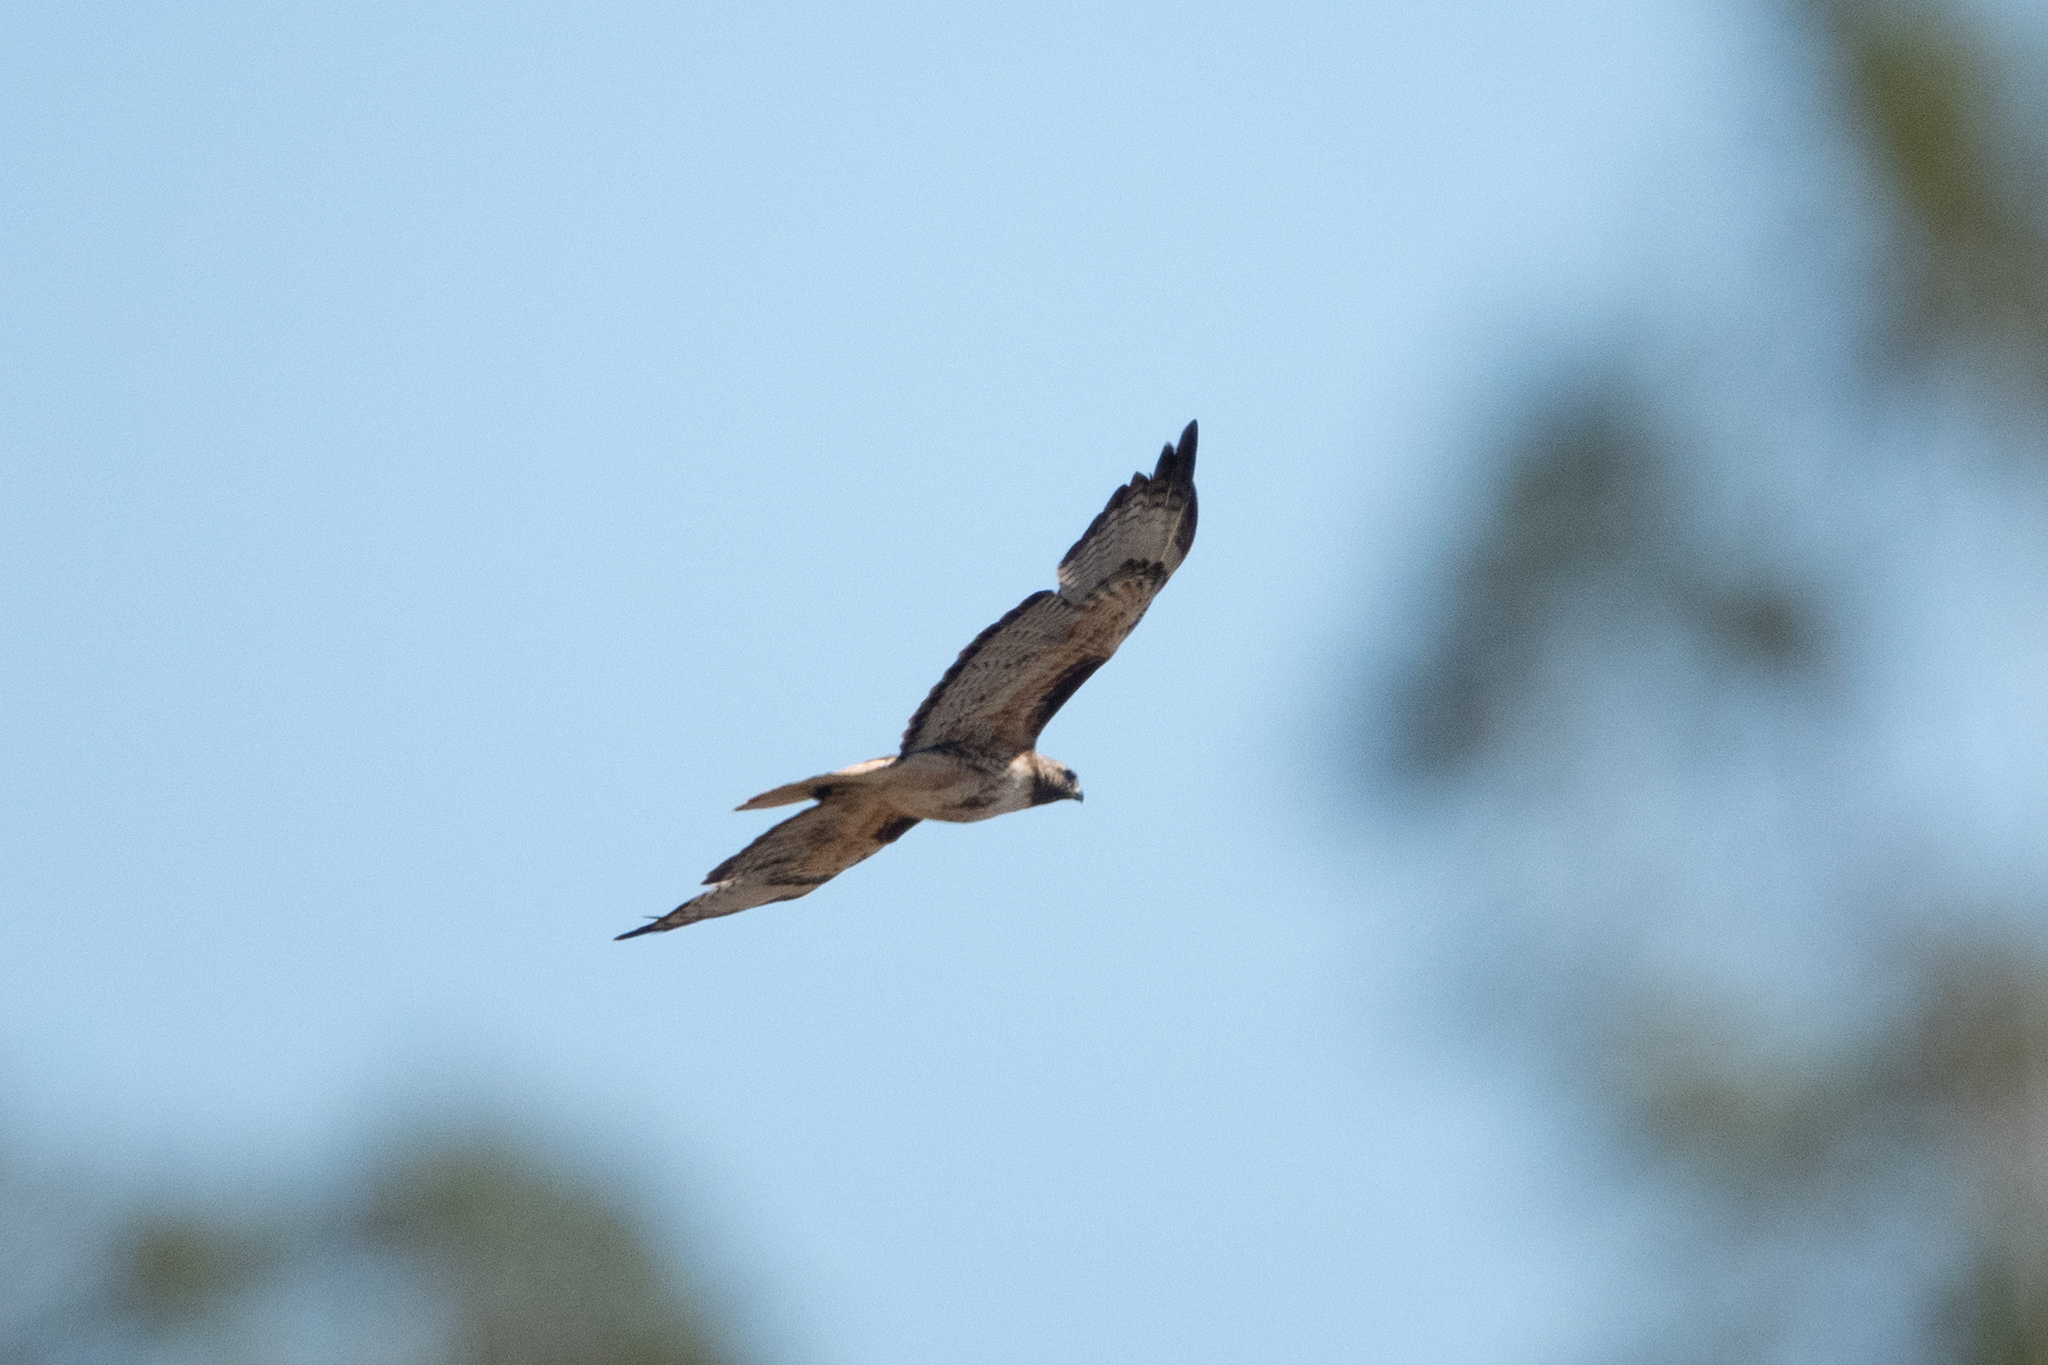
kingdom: Animalia
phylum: Chordata
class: Aves
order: Accipitriformes
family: Accipitridae
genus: Buteo
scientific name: Buteo jamaicensis
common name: Red-tailed hawk
